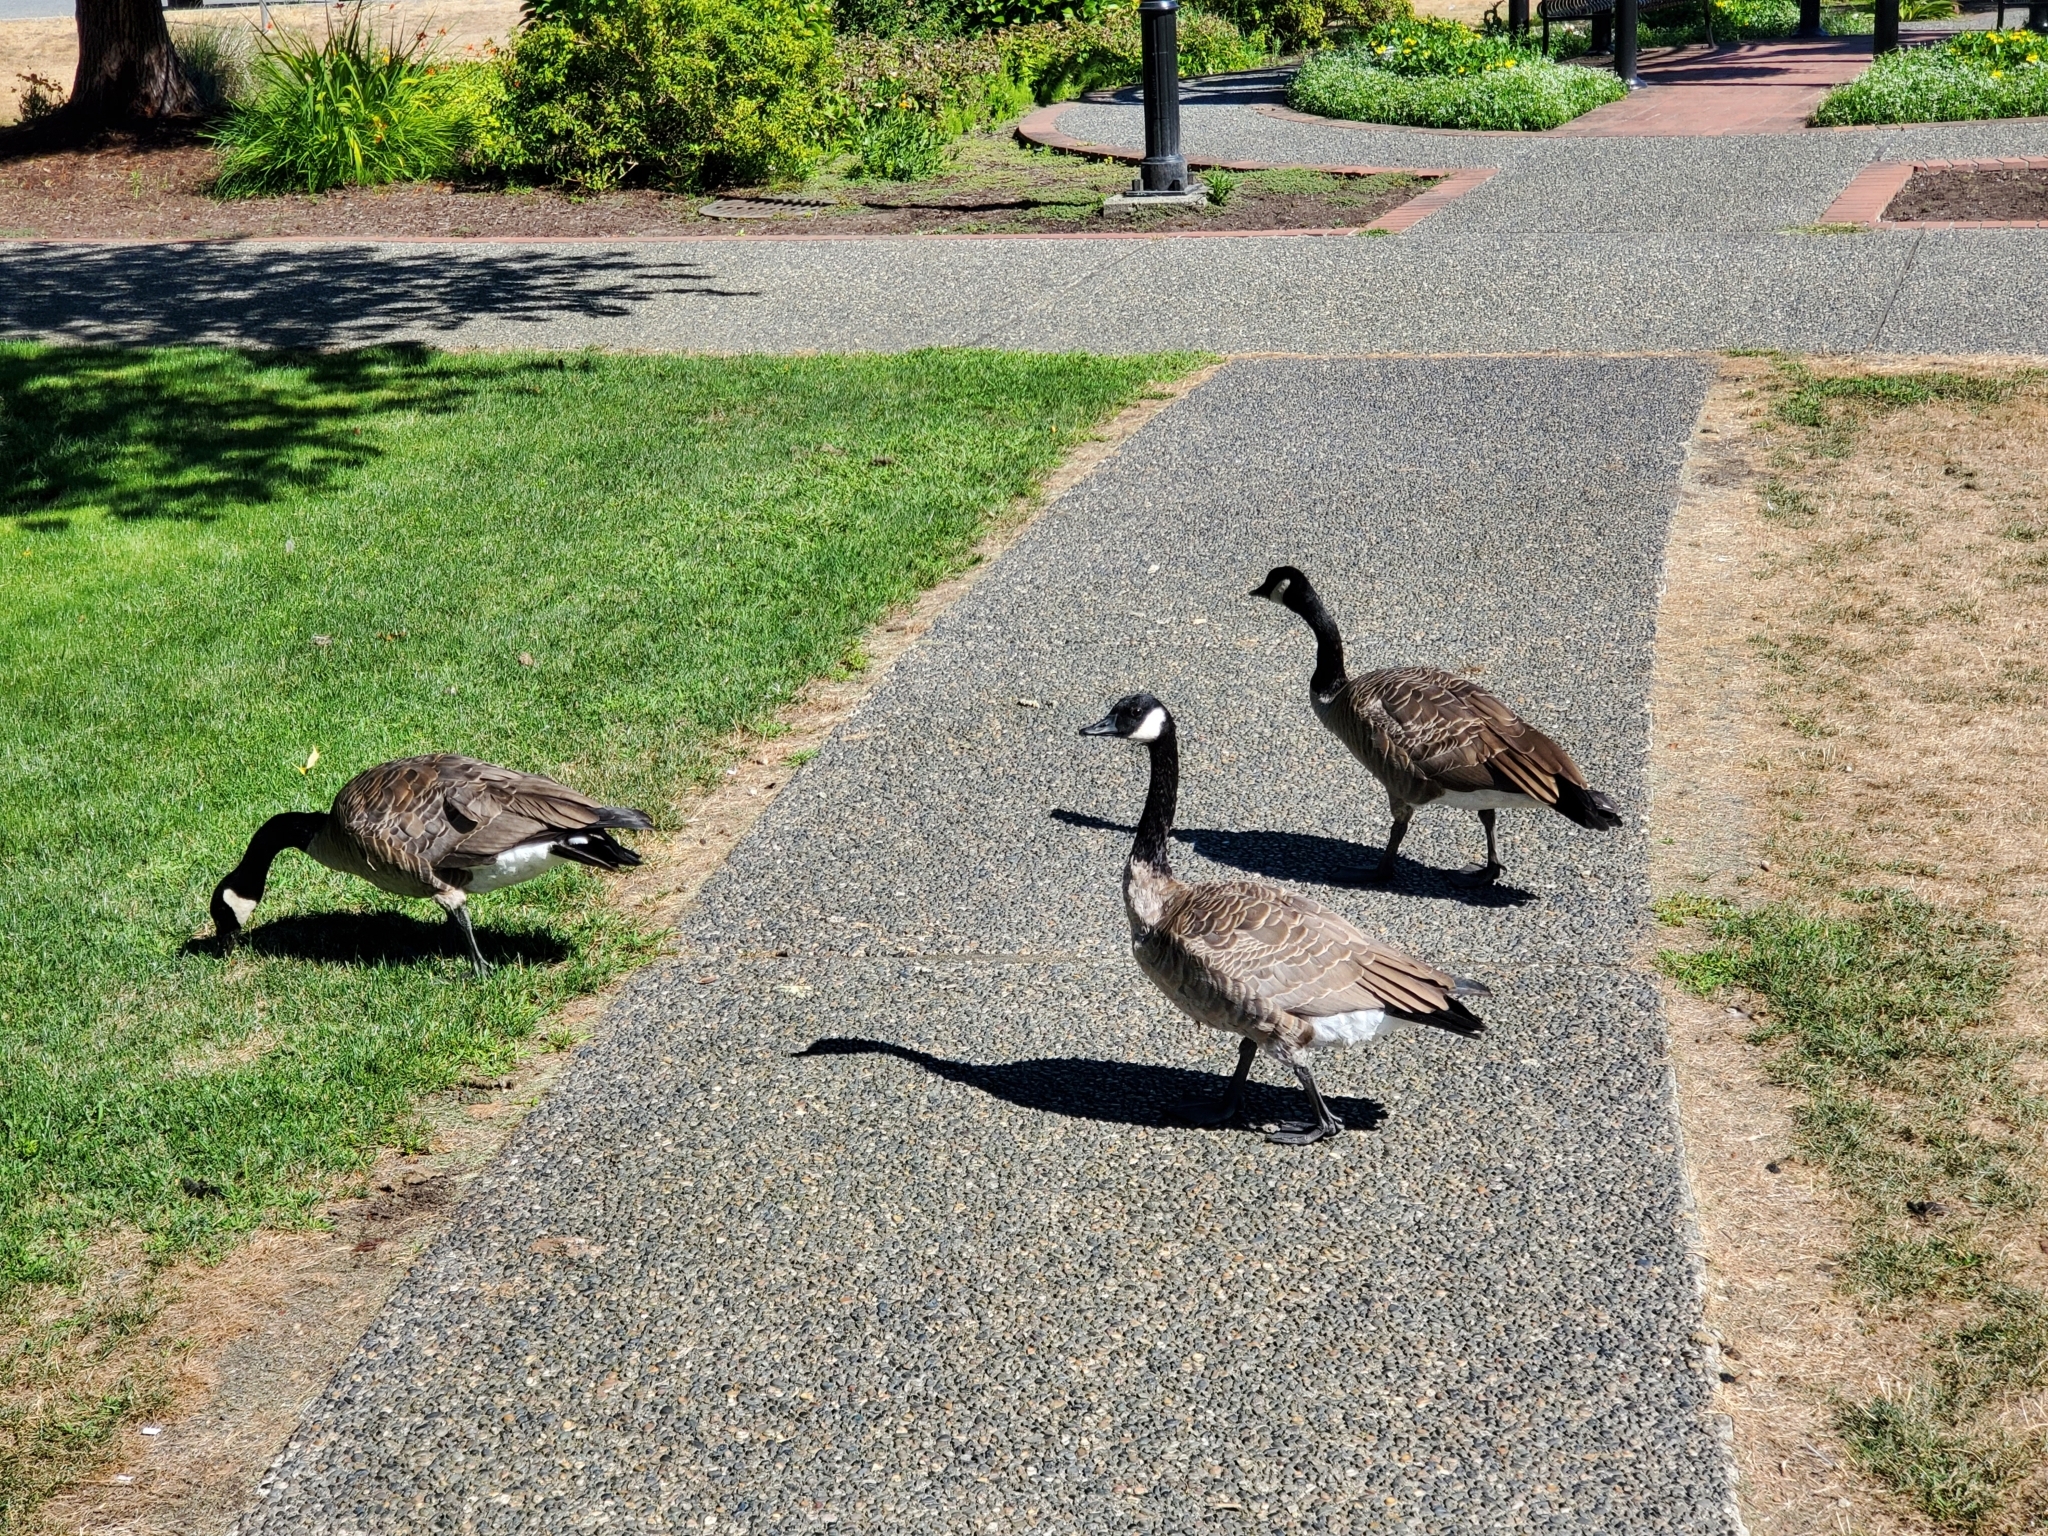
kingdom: Animalia
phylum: Chordata
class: Aves
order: Anseriformes
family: Anatidae
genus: Branta
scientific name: Branta canadensis
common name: Canada goose
